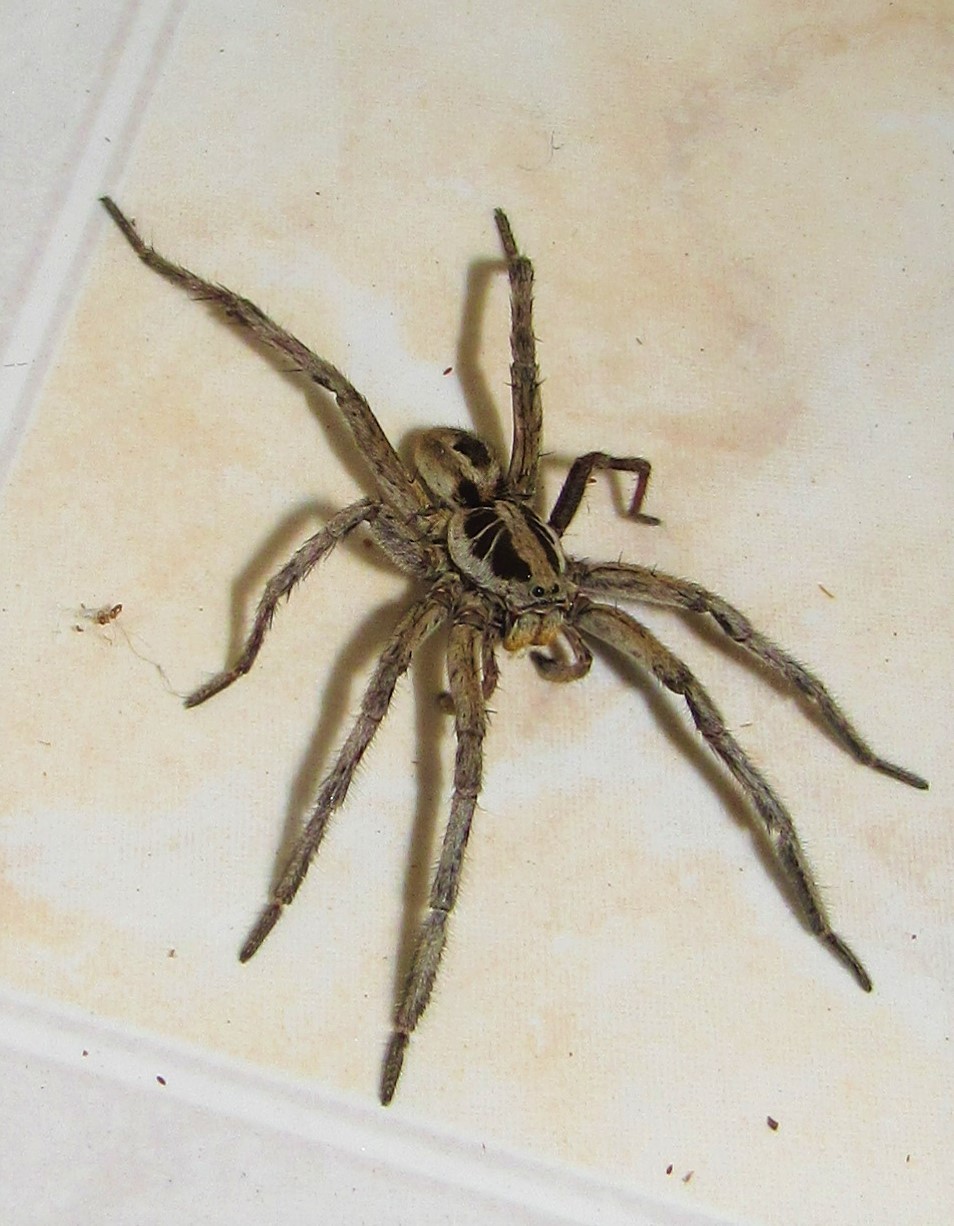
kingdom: Animalia
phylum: Arthropoda
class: Arachnida
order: Araneae
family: Lycosidae
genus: Lycosa
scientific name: Lycosa erythrognatha
